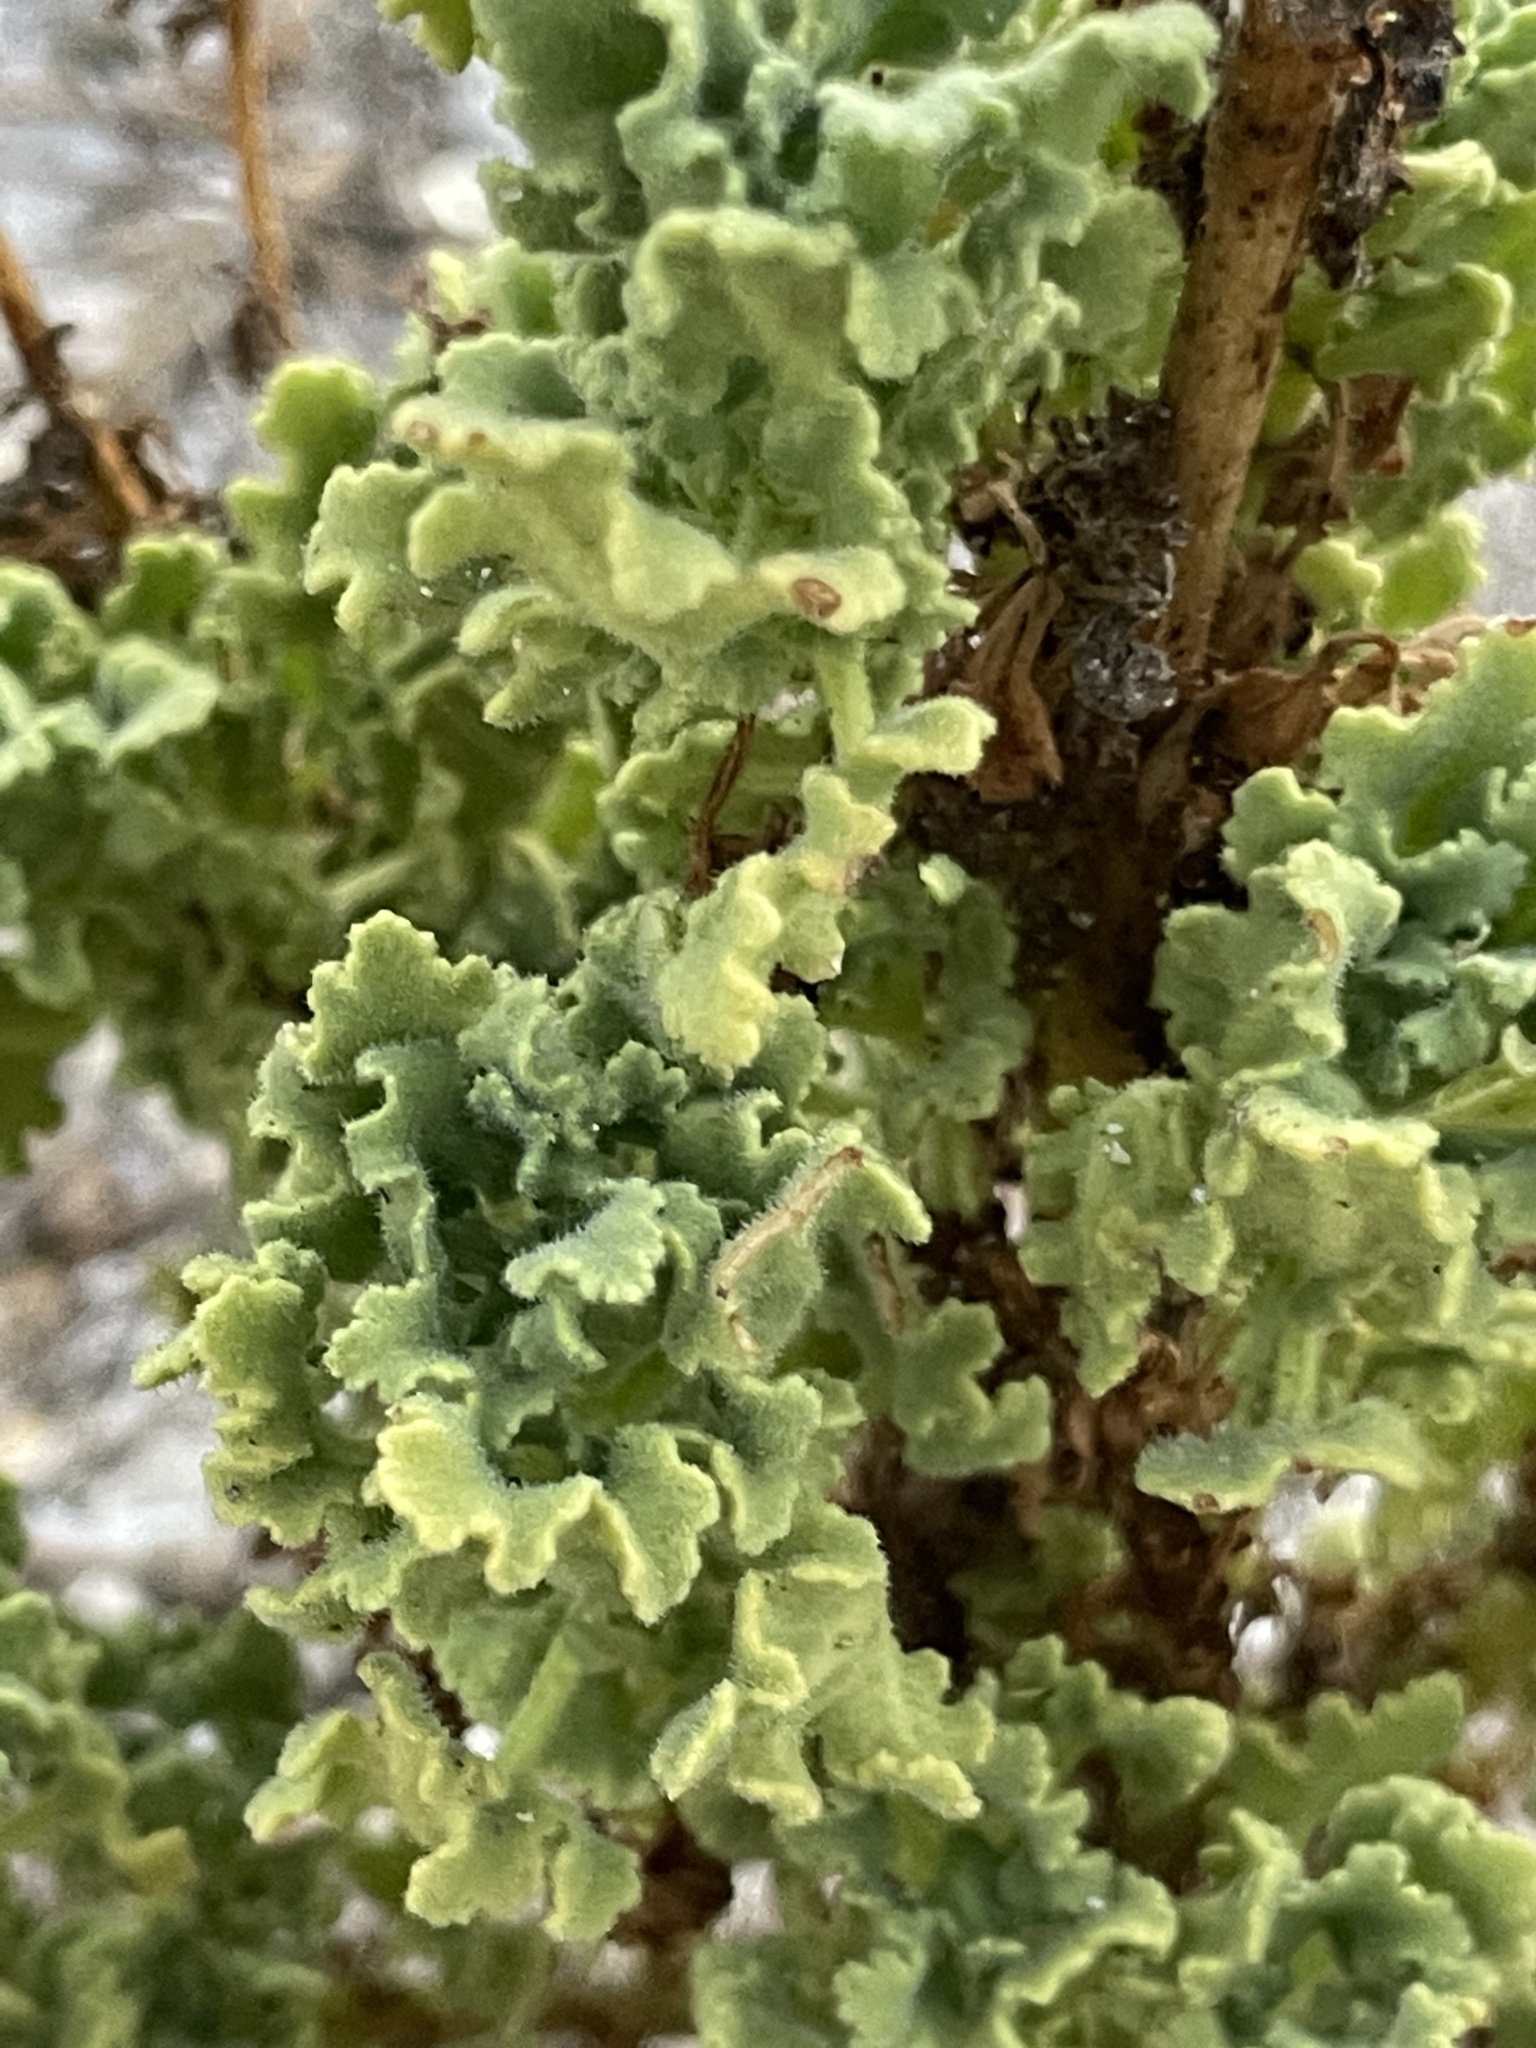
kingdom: Plantae
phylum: Tracheophyta
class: Magnoliopsida
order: Asterales
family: Asteraceae
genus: Perityle
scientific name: Perityle crassifolia
